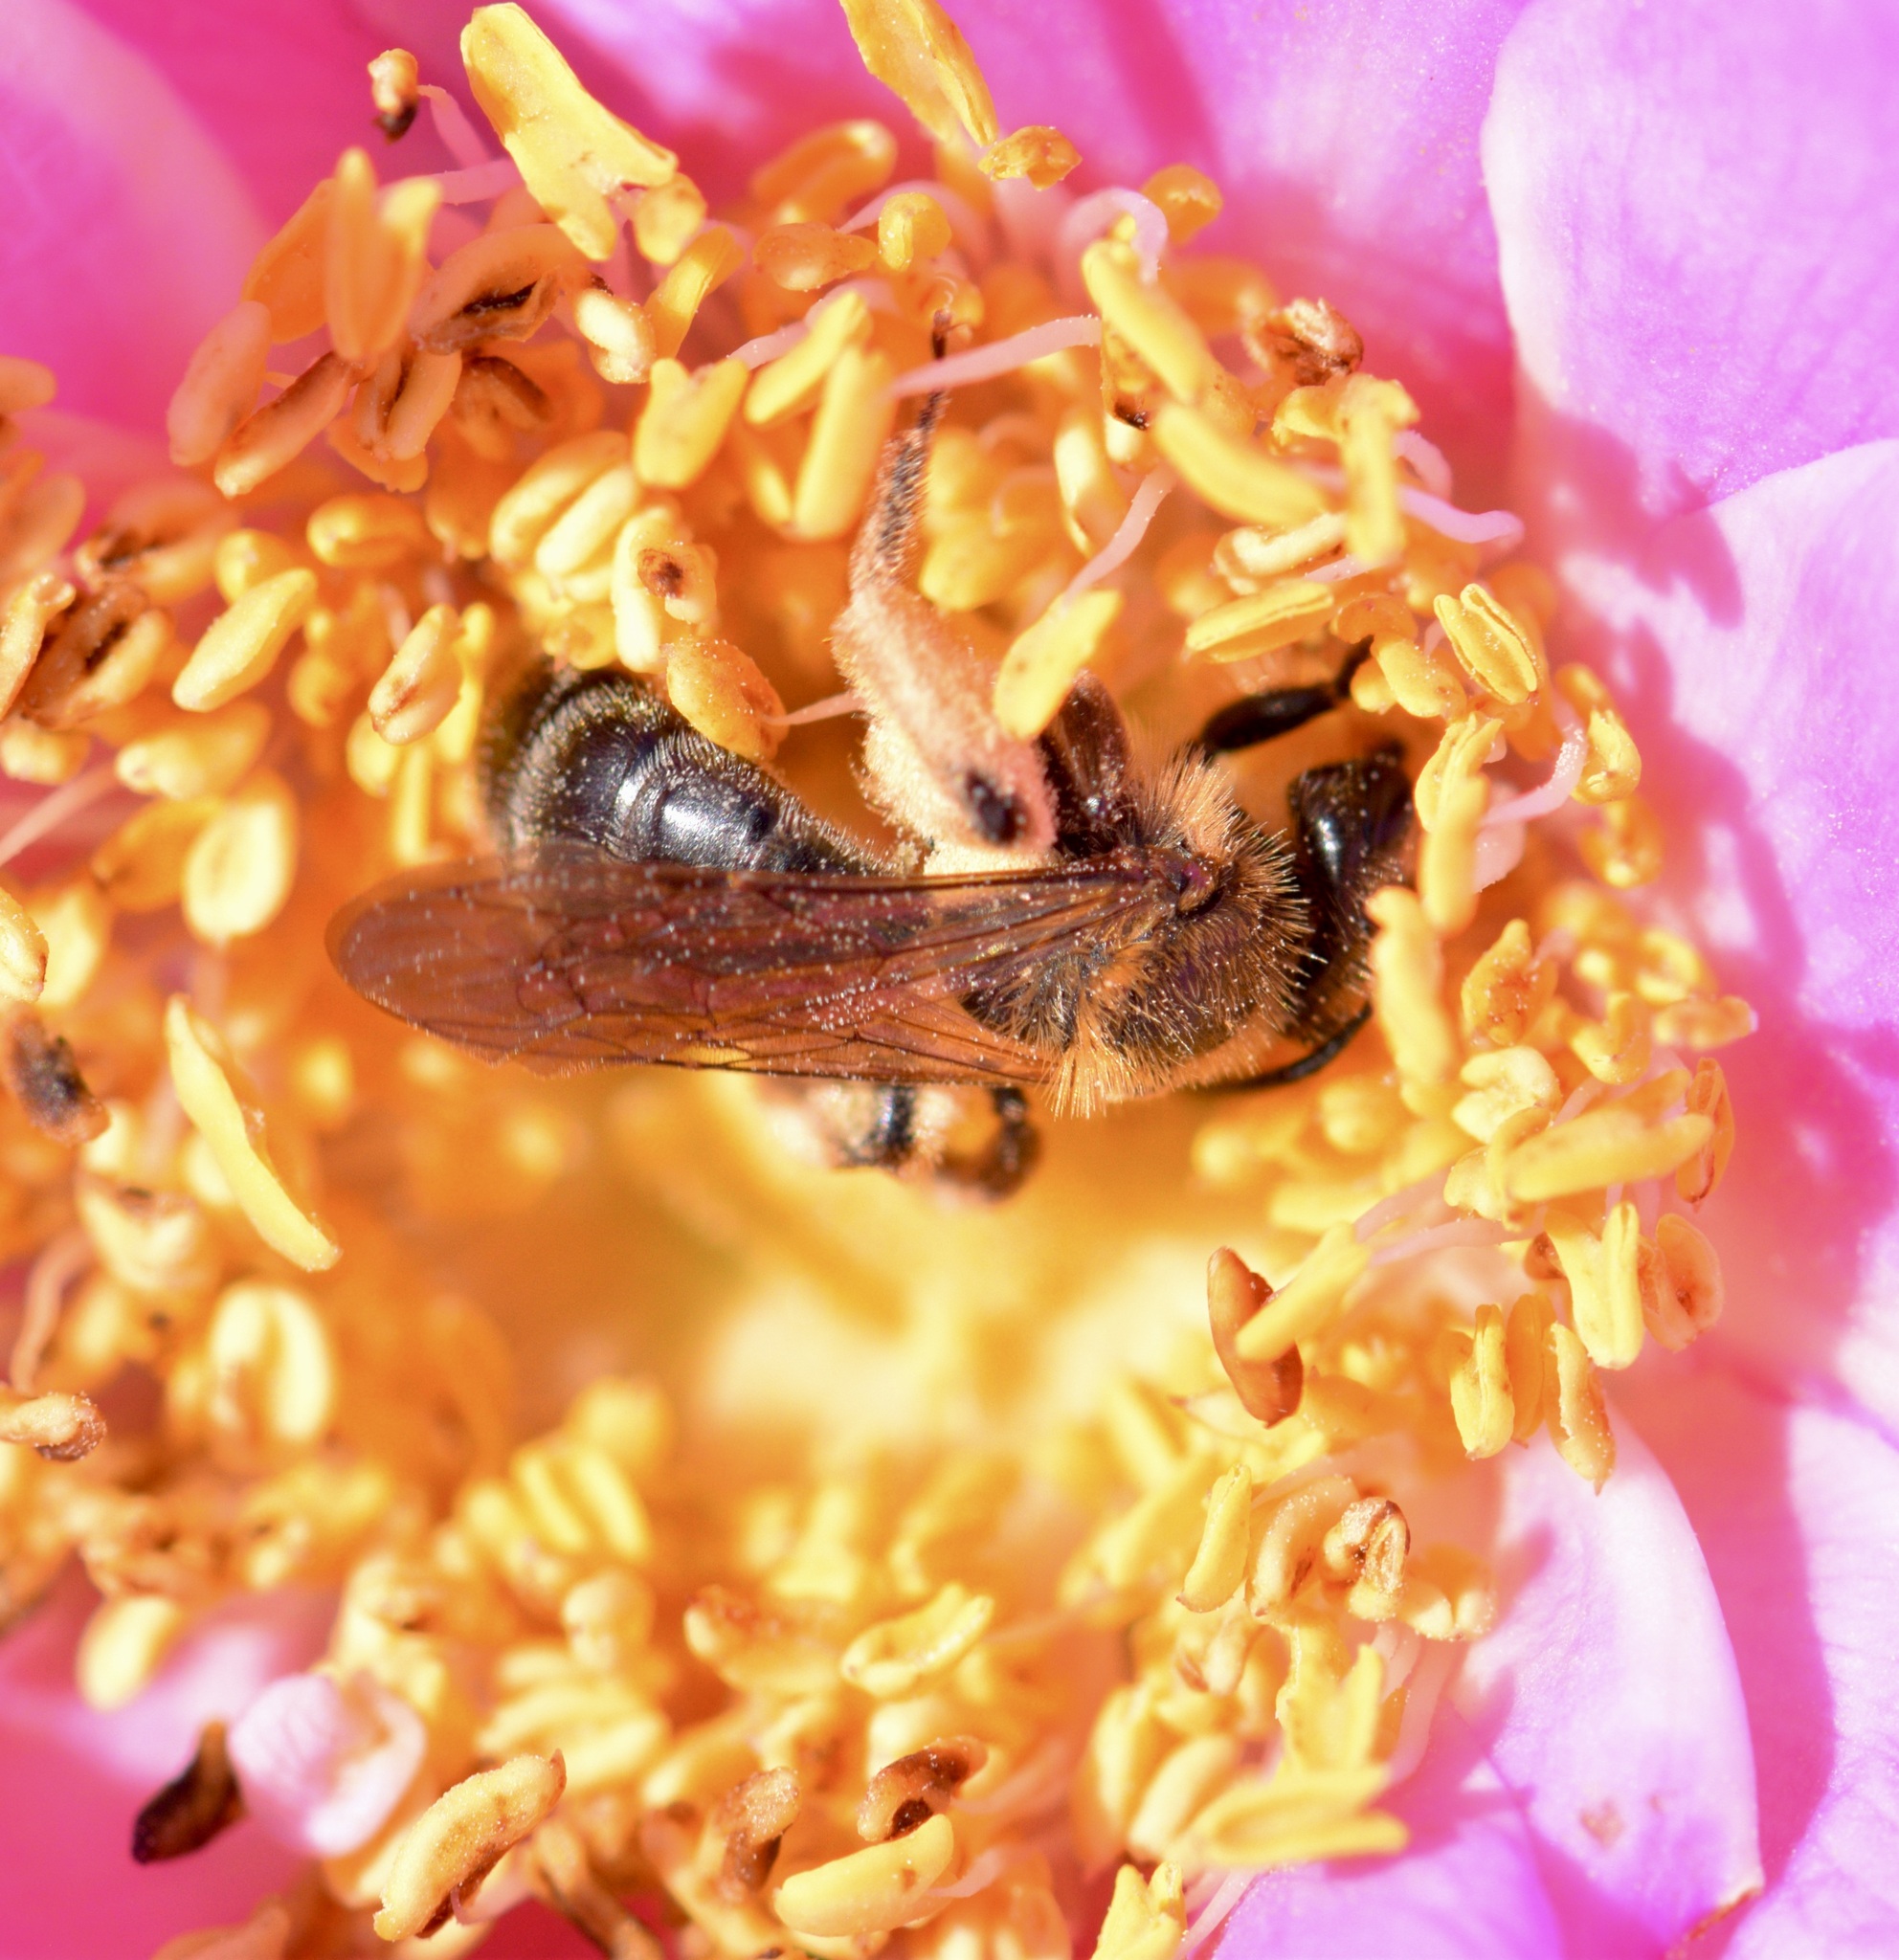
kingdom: Animalia
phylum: Arthropoda
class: Insecta
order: Hymenoptera
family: Andrenidae
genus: Andrena
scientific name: Andrena thaspii
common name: Parsnip miner bee
